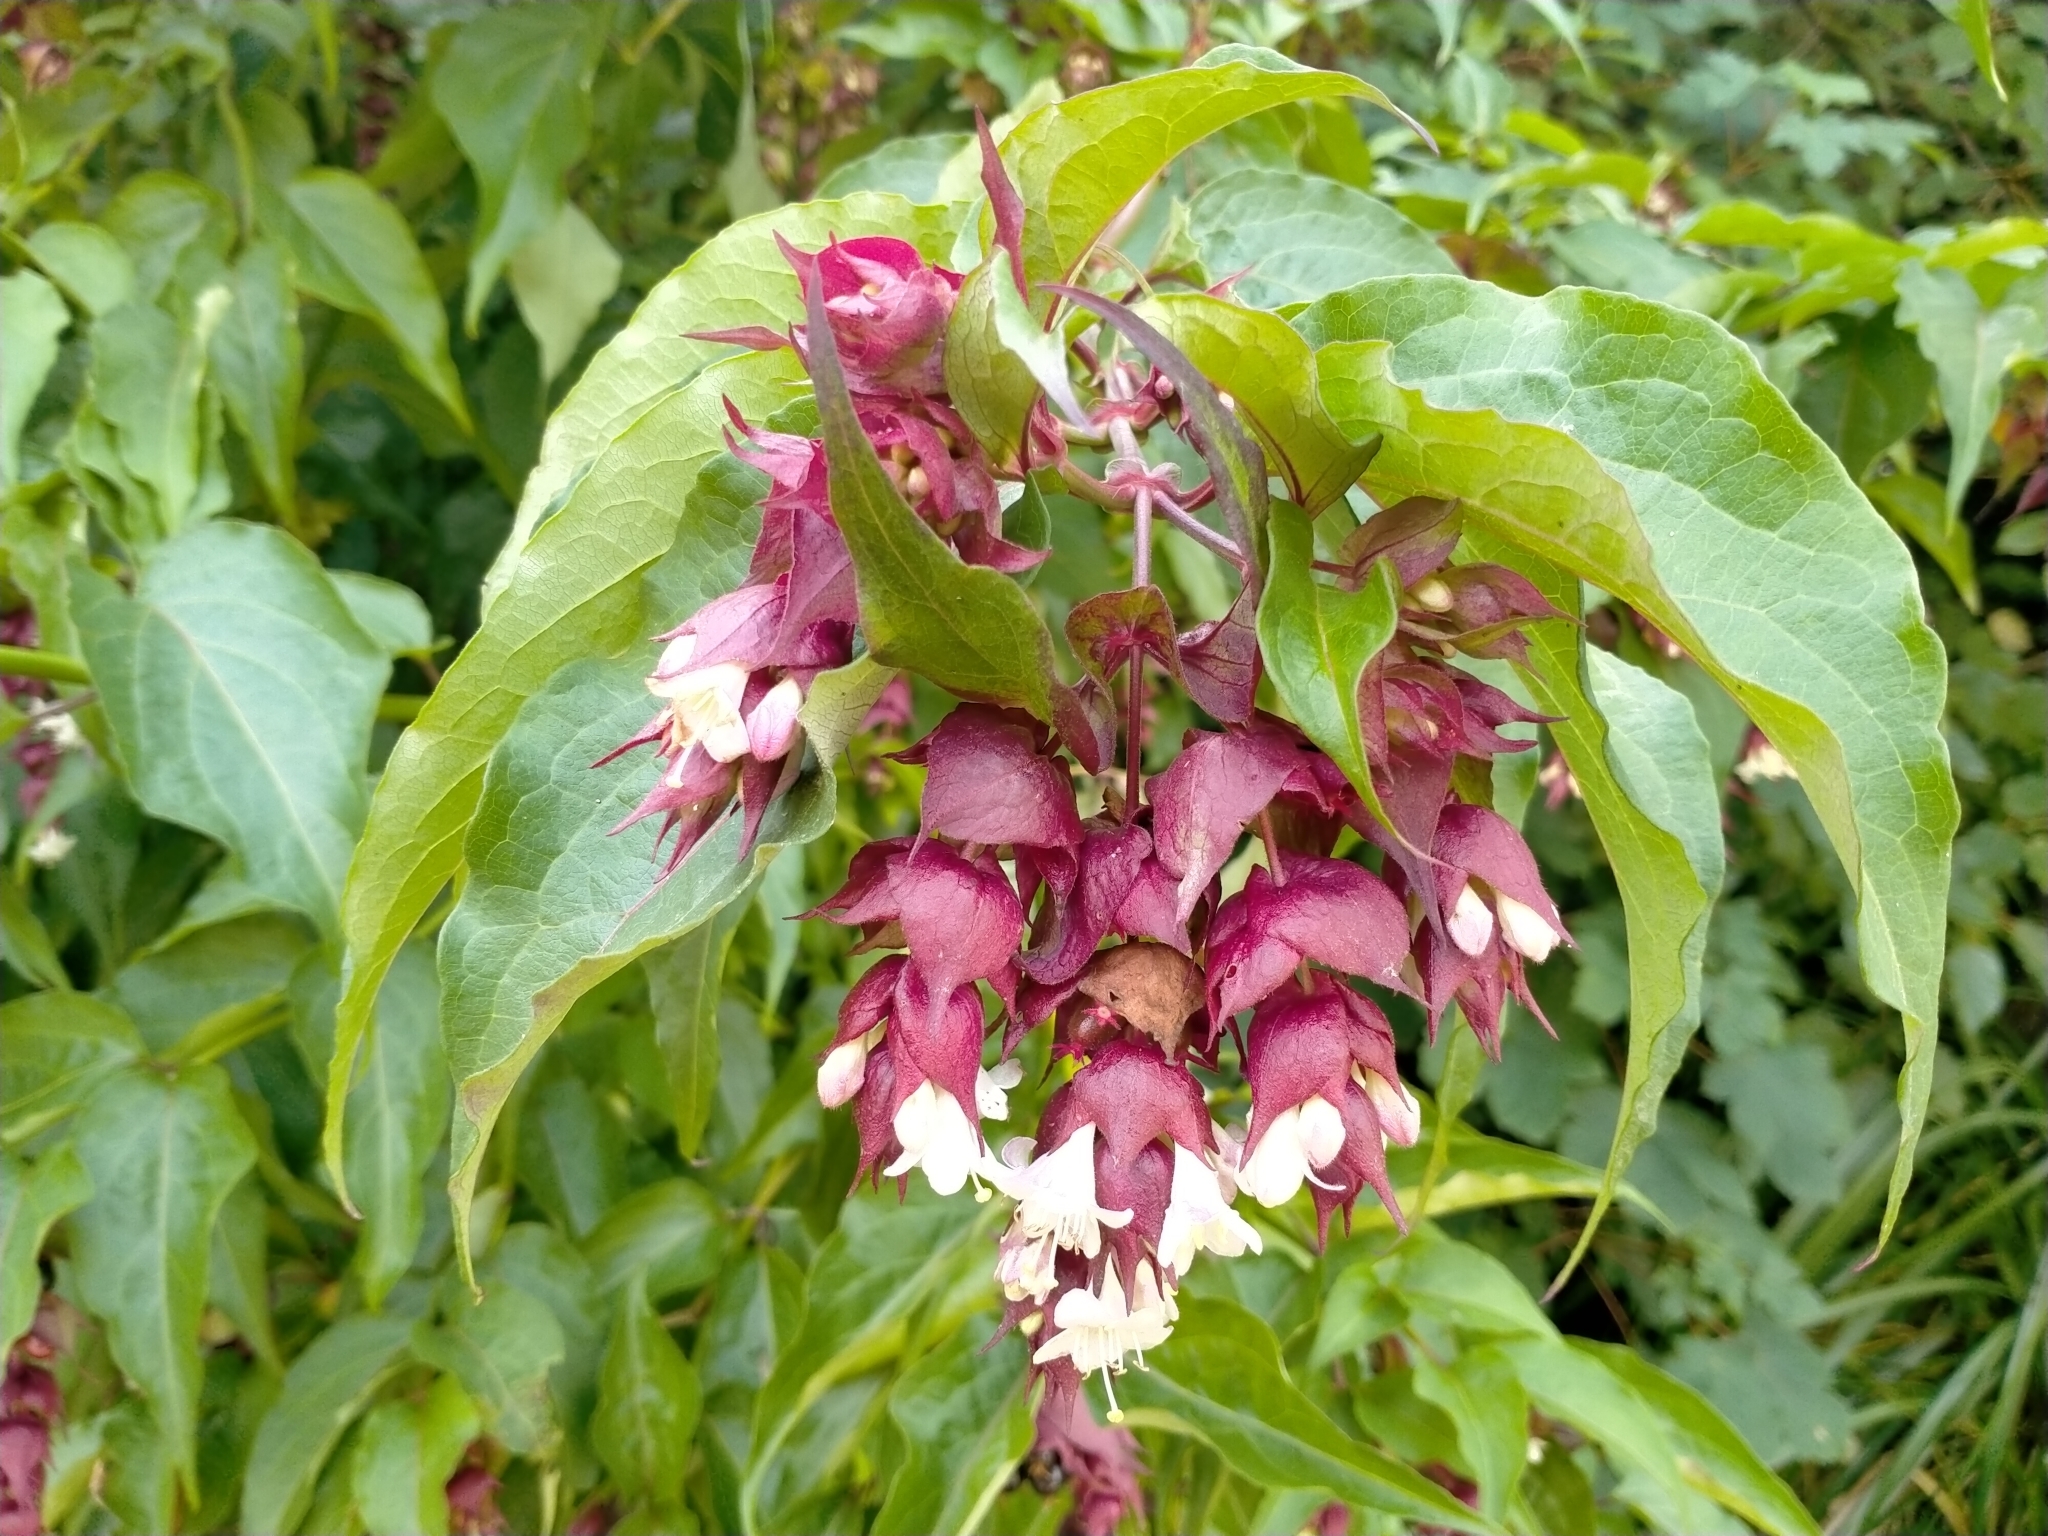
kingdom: Plantae
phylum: Tracheophyta
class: Magnoliopsida
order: Dipsacales
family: Caprifoliaceae
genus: Leycesteria
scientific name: Leycesteria formosa
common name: Himalayan honeysuckle
